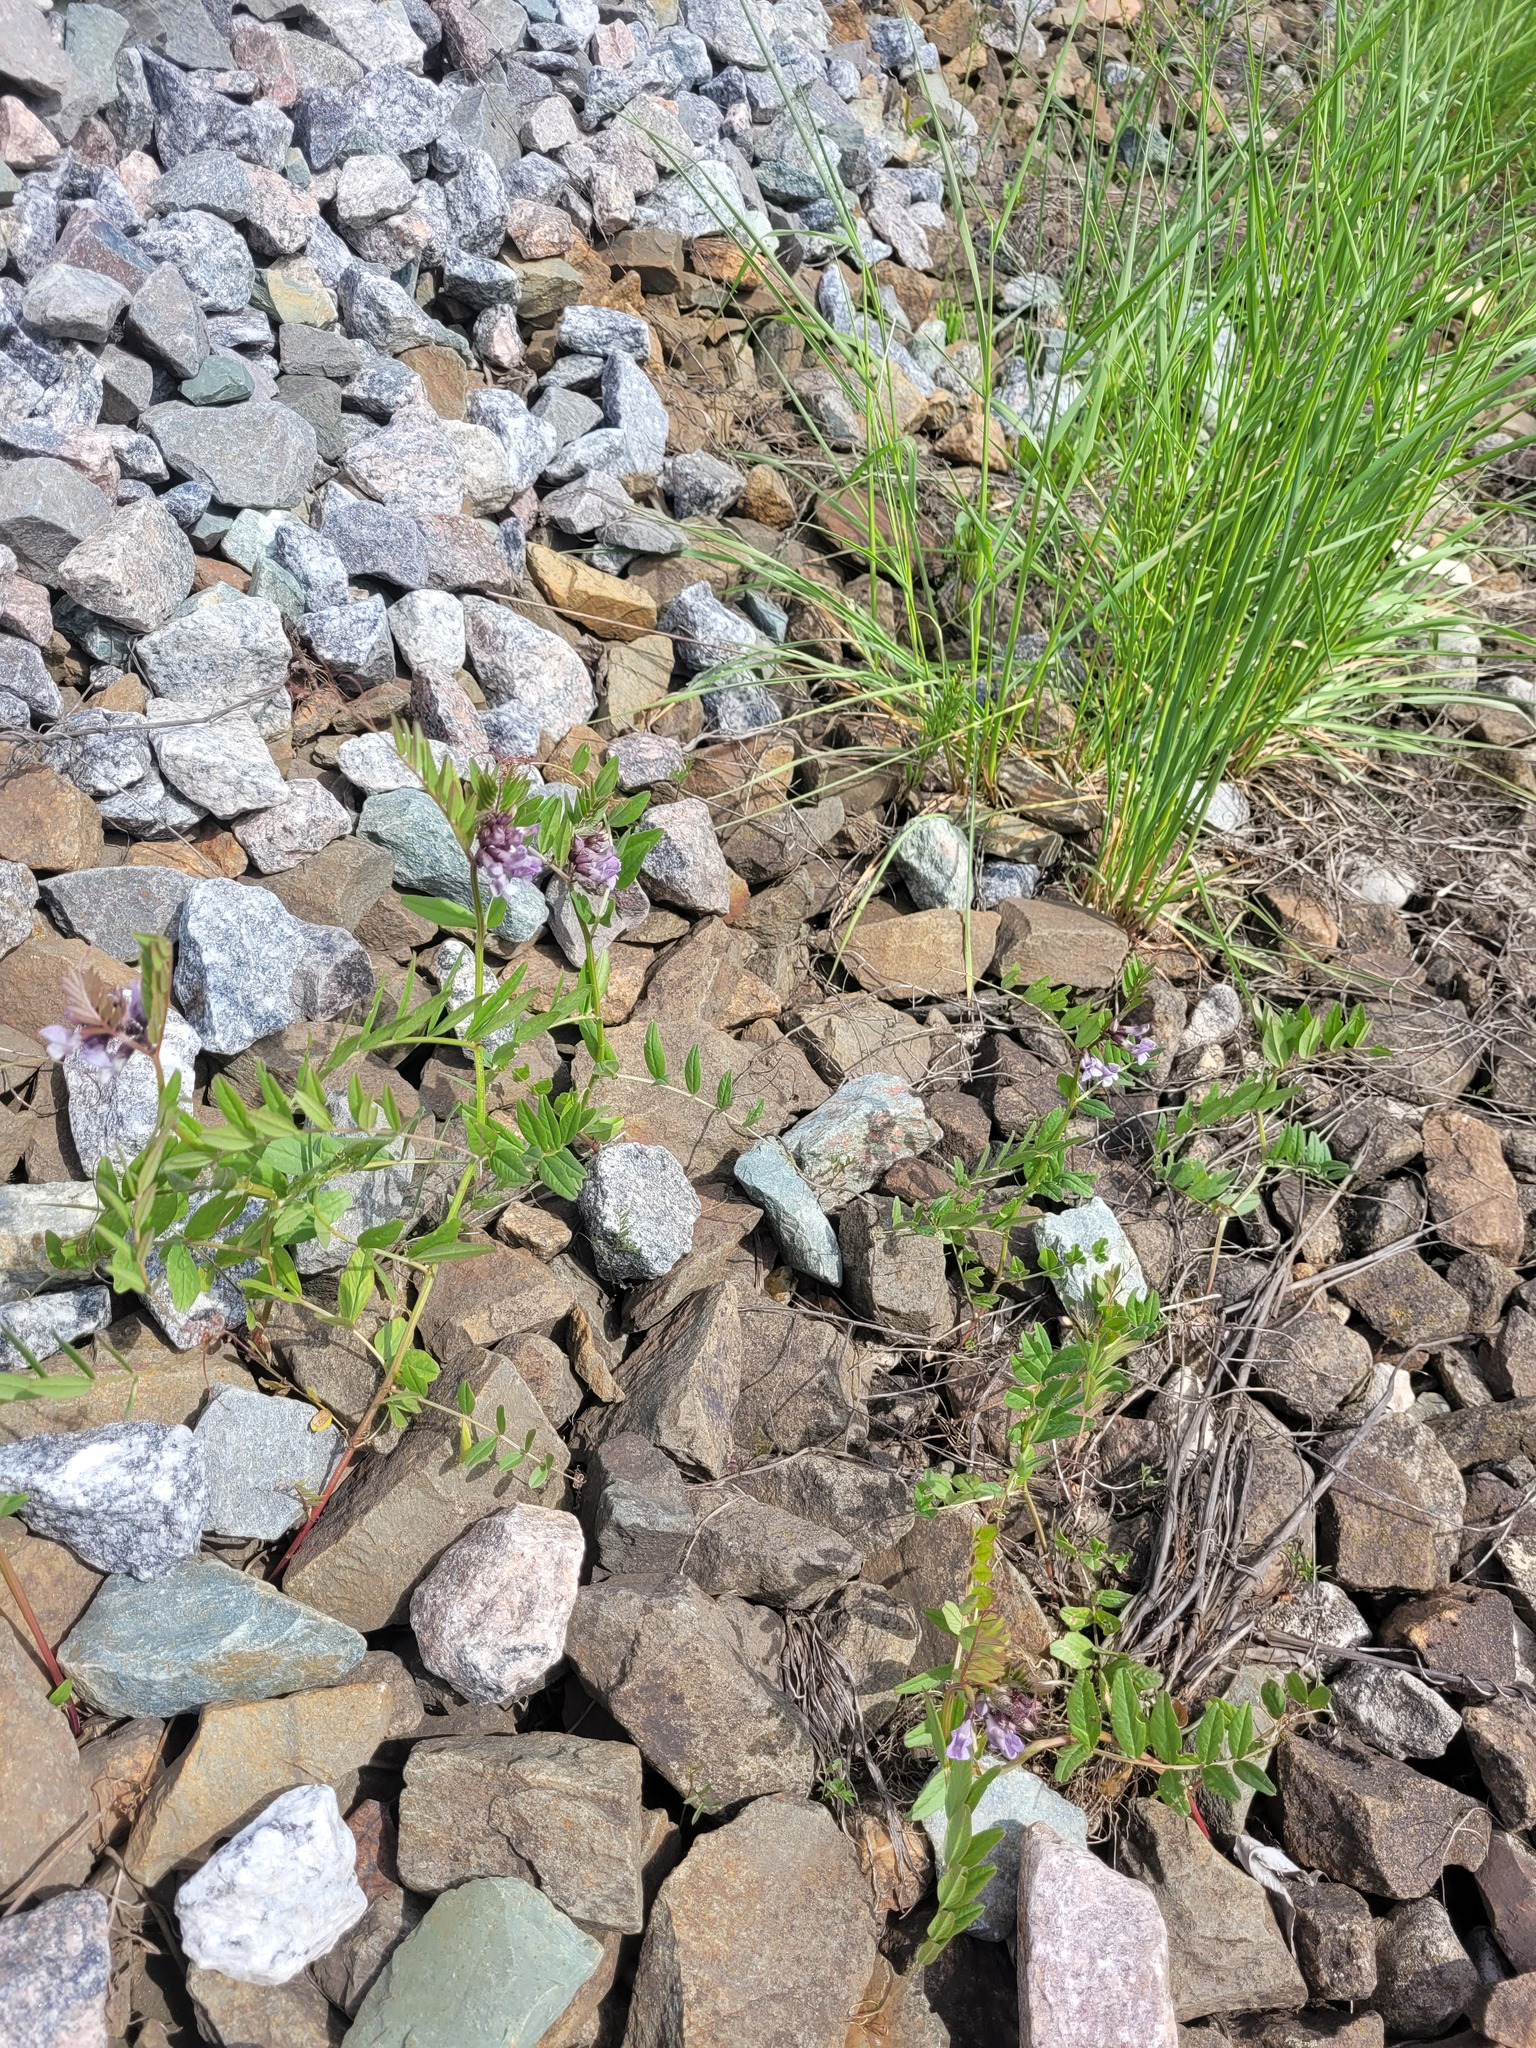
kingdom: Plantae
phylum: Tracheophyta
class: Magnoliopsida
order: Fabales
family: Fabaceae
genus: Vicia
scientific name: Vicia sepium
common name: Bush vetch
